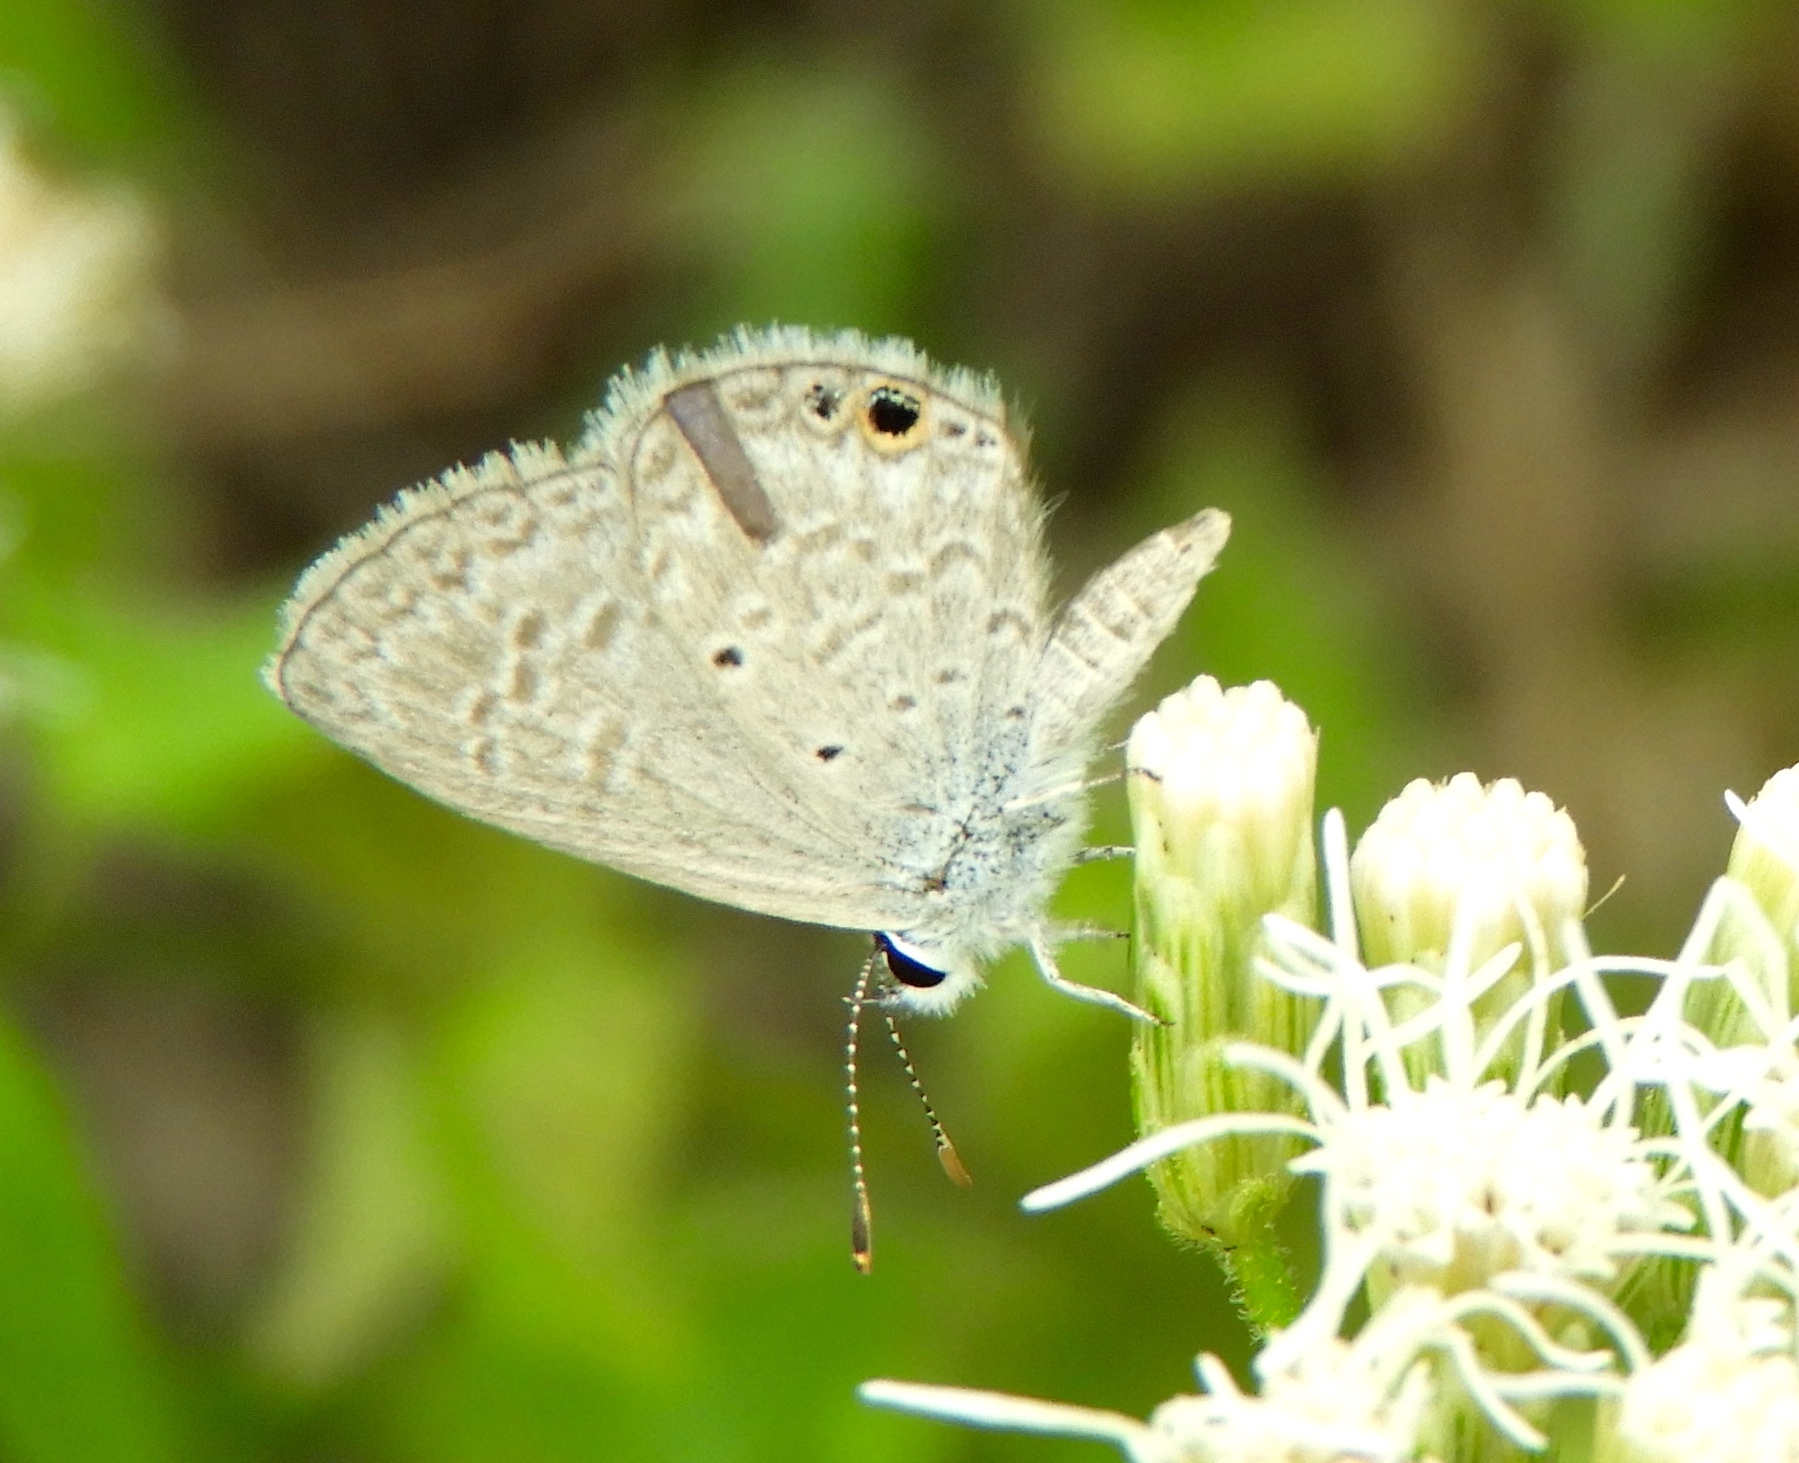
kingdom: Animalia
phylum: Arthropoda
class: Insecta
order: Lepidoptera
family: Lycaenidae
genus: Hemiargus
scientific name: Hemiargus ceraunus
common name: Ceraunus blue
